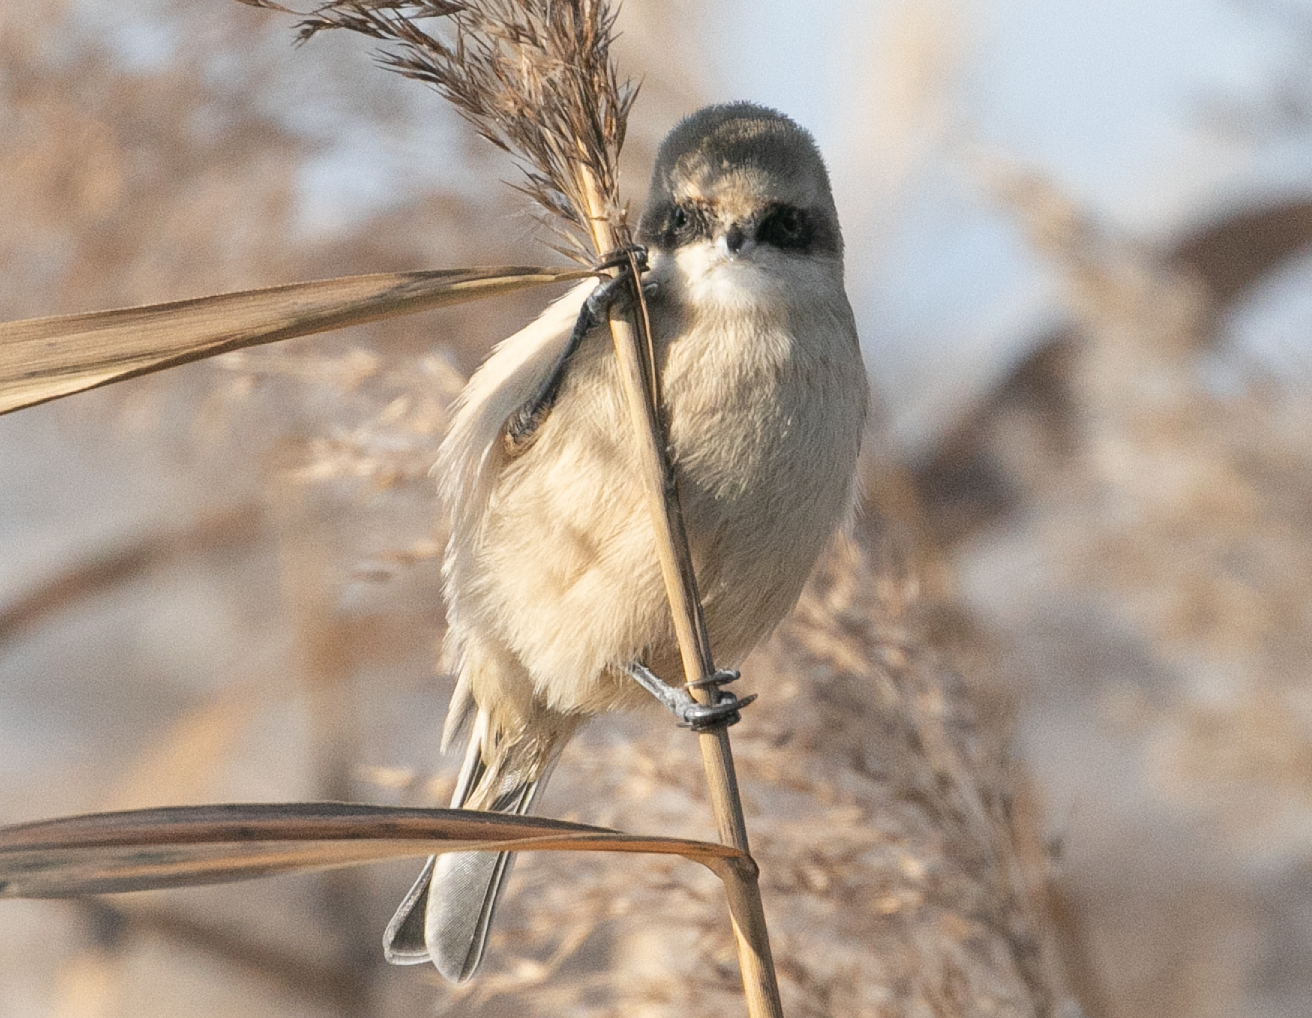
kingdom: Animalia
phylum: Chordata
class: Aves
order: Passeriformes
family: Remizidae
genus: Remiz
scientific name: Remiz pendulinus
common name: Eurasian penduline tit
